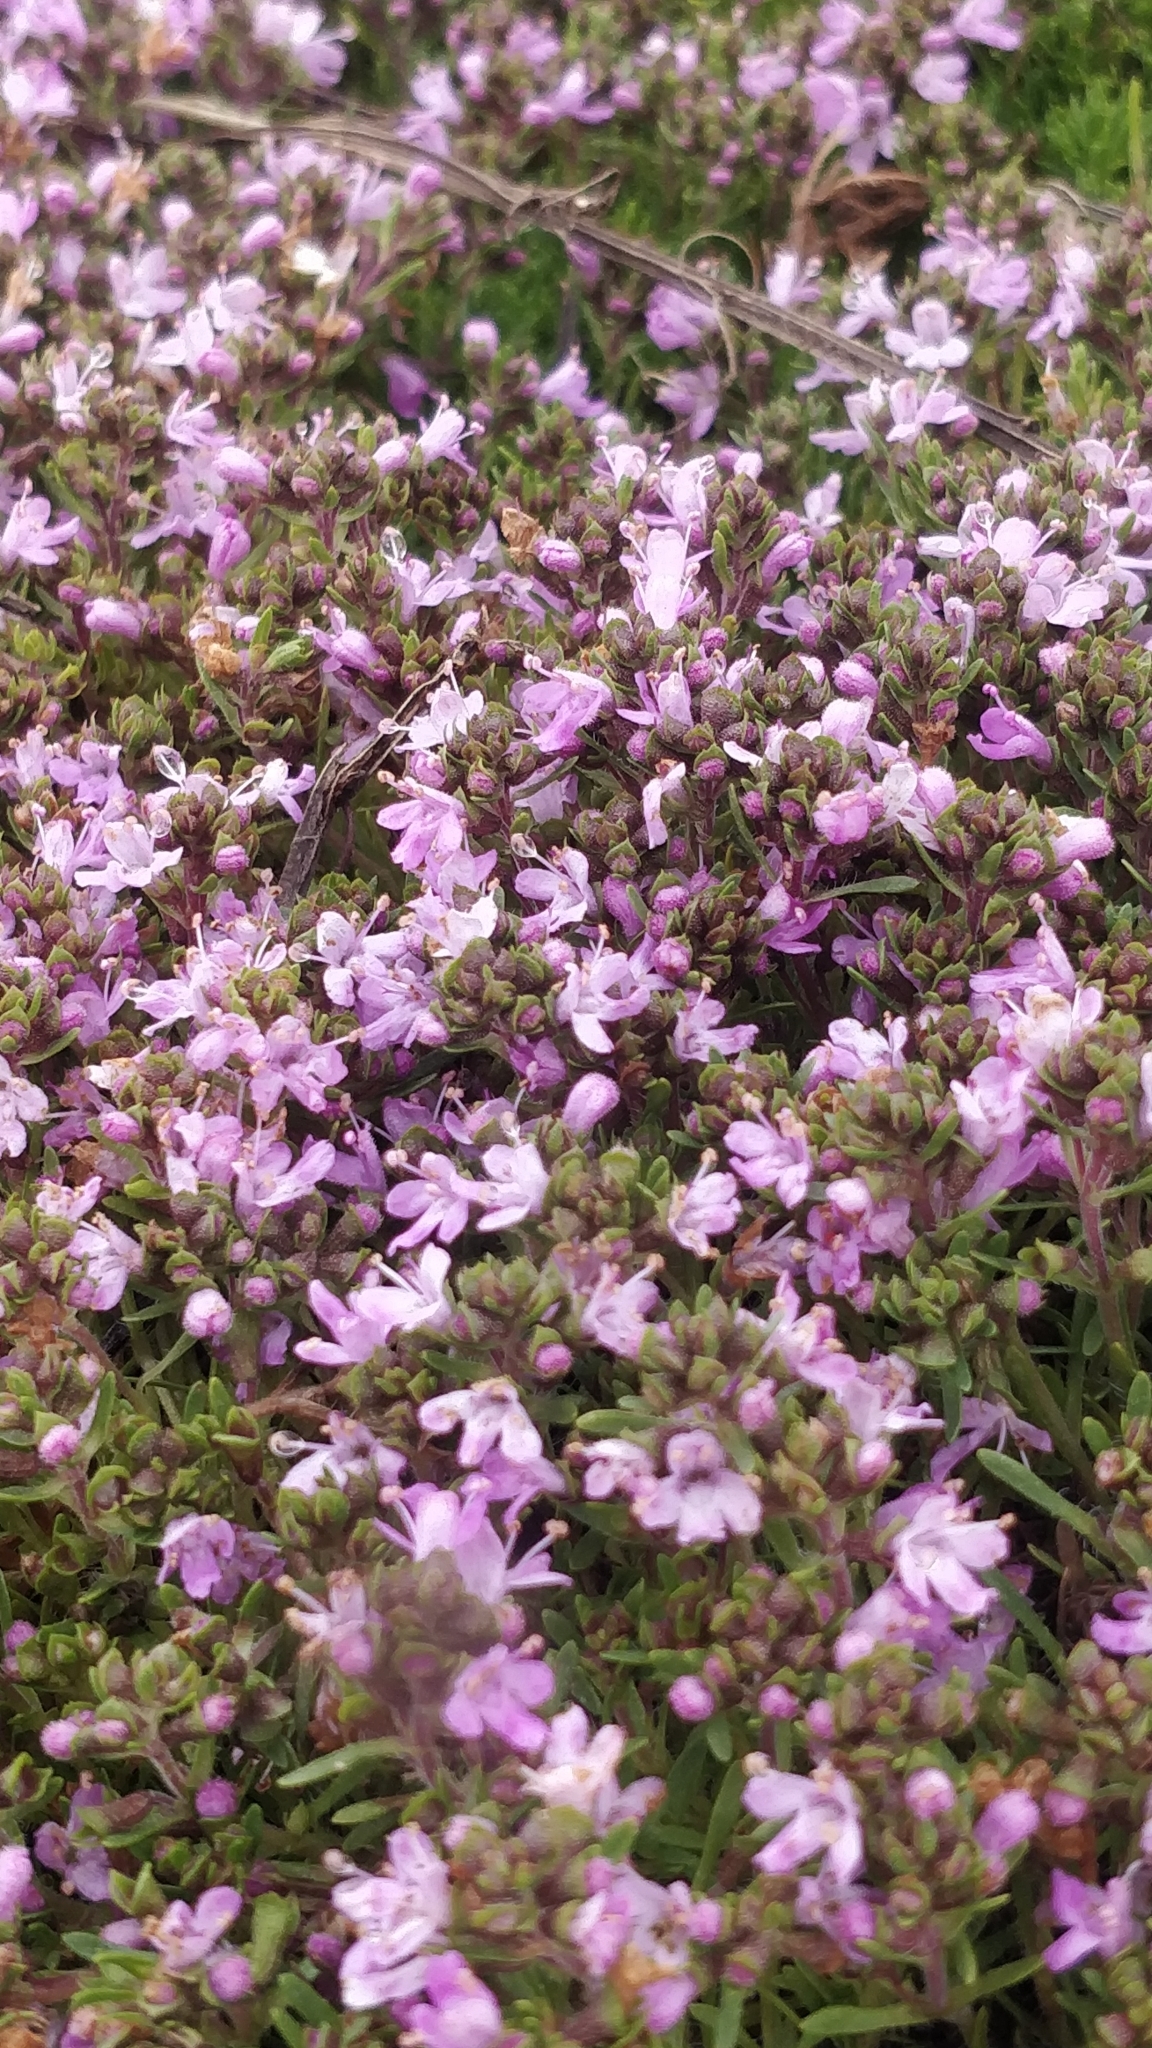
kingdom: Plantae
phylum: Tracheophyta
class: Magnoliopsida
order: Lamiales
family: Lamiaceae
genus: Thymus
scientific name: Thymus caespititius
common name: Azores thyme
